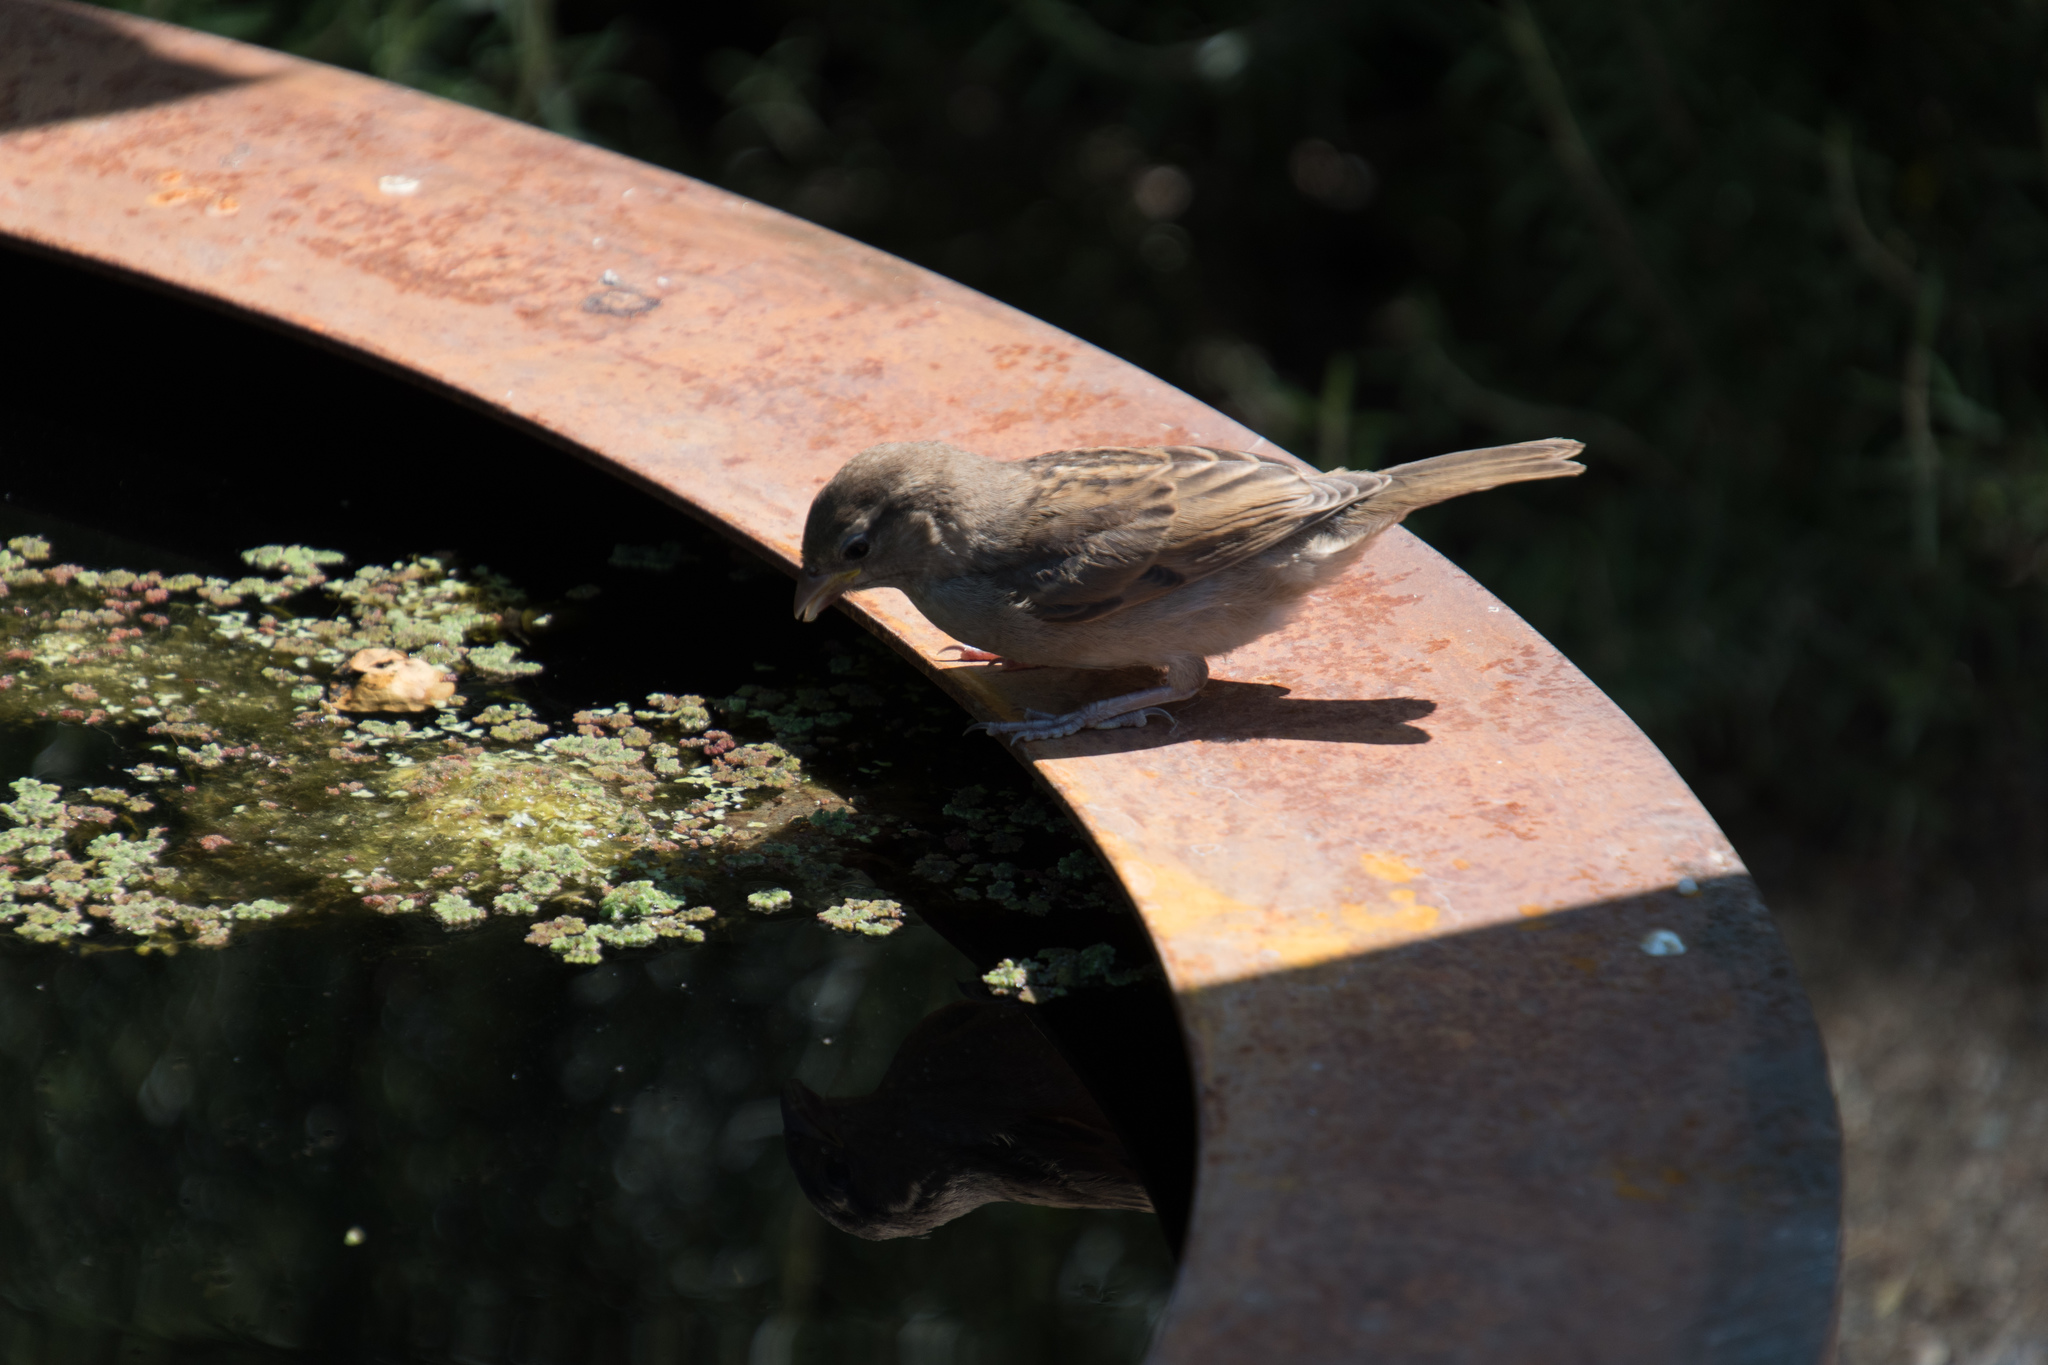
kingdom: Animalia
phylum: Chordata
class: Aves
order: Passeriformes
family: Passeridae
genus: Passer
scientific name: Passer domesticus
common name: House sparrow
